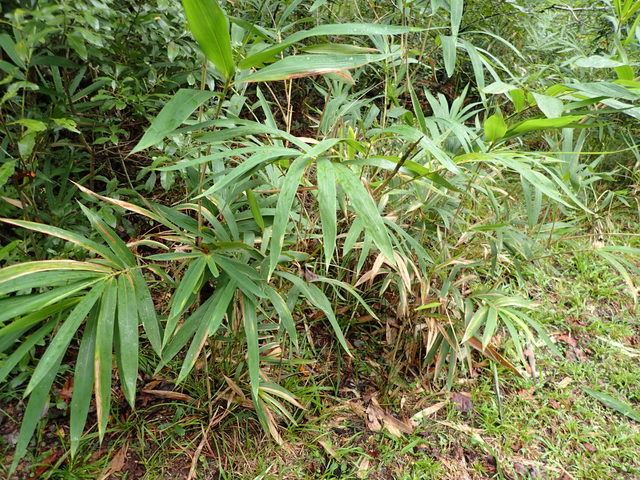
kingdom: Plantae
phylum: Tracheophyta
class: Liliopsida
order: Poales
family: Poaceae
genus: Arundinaria
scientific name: Arundinaria tecta
